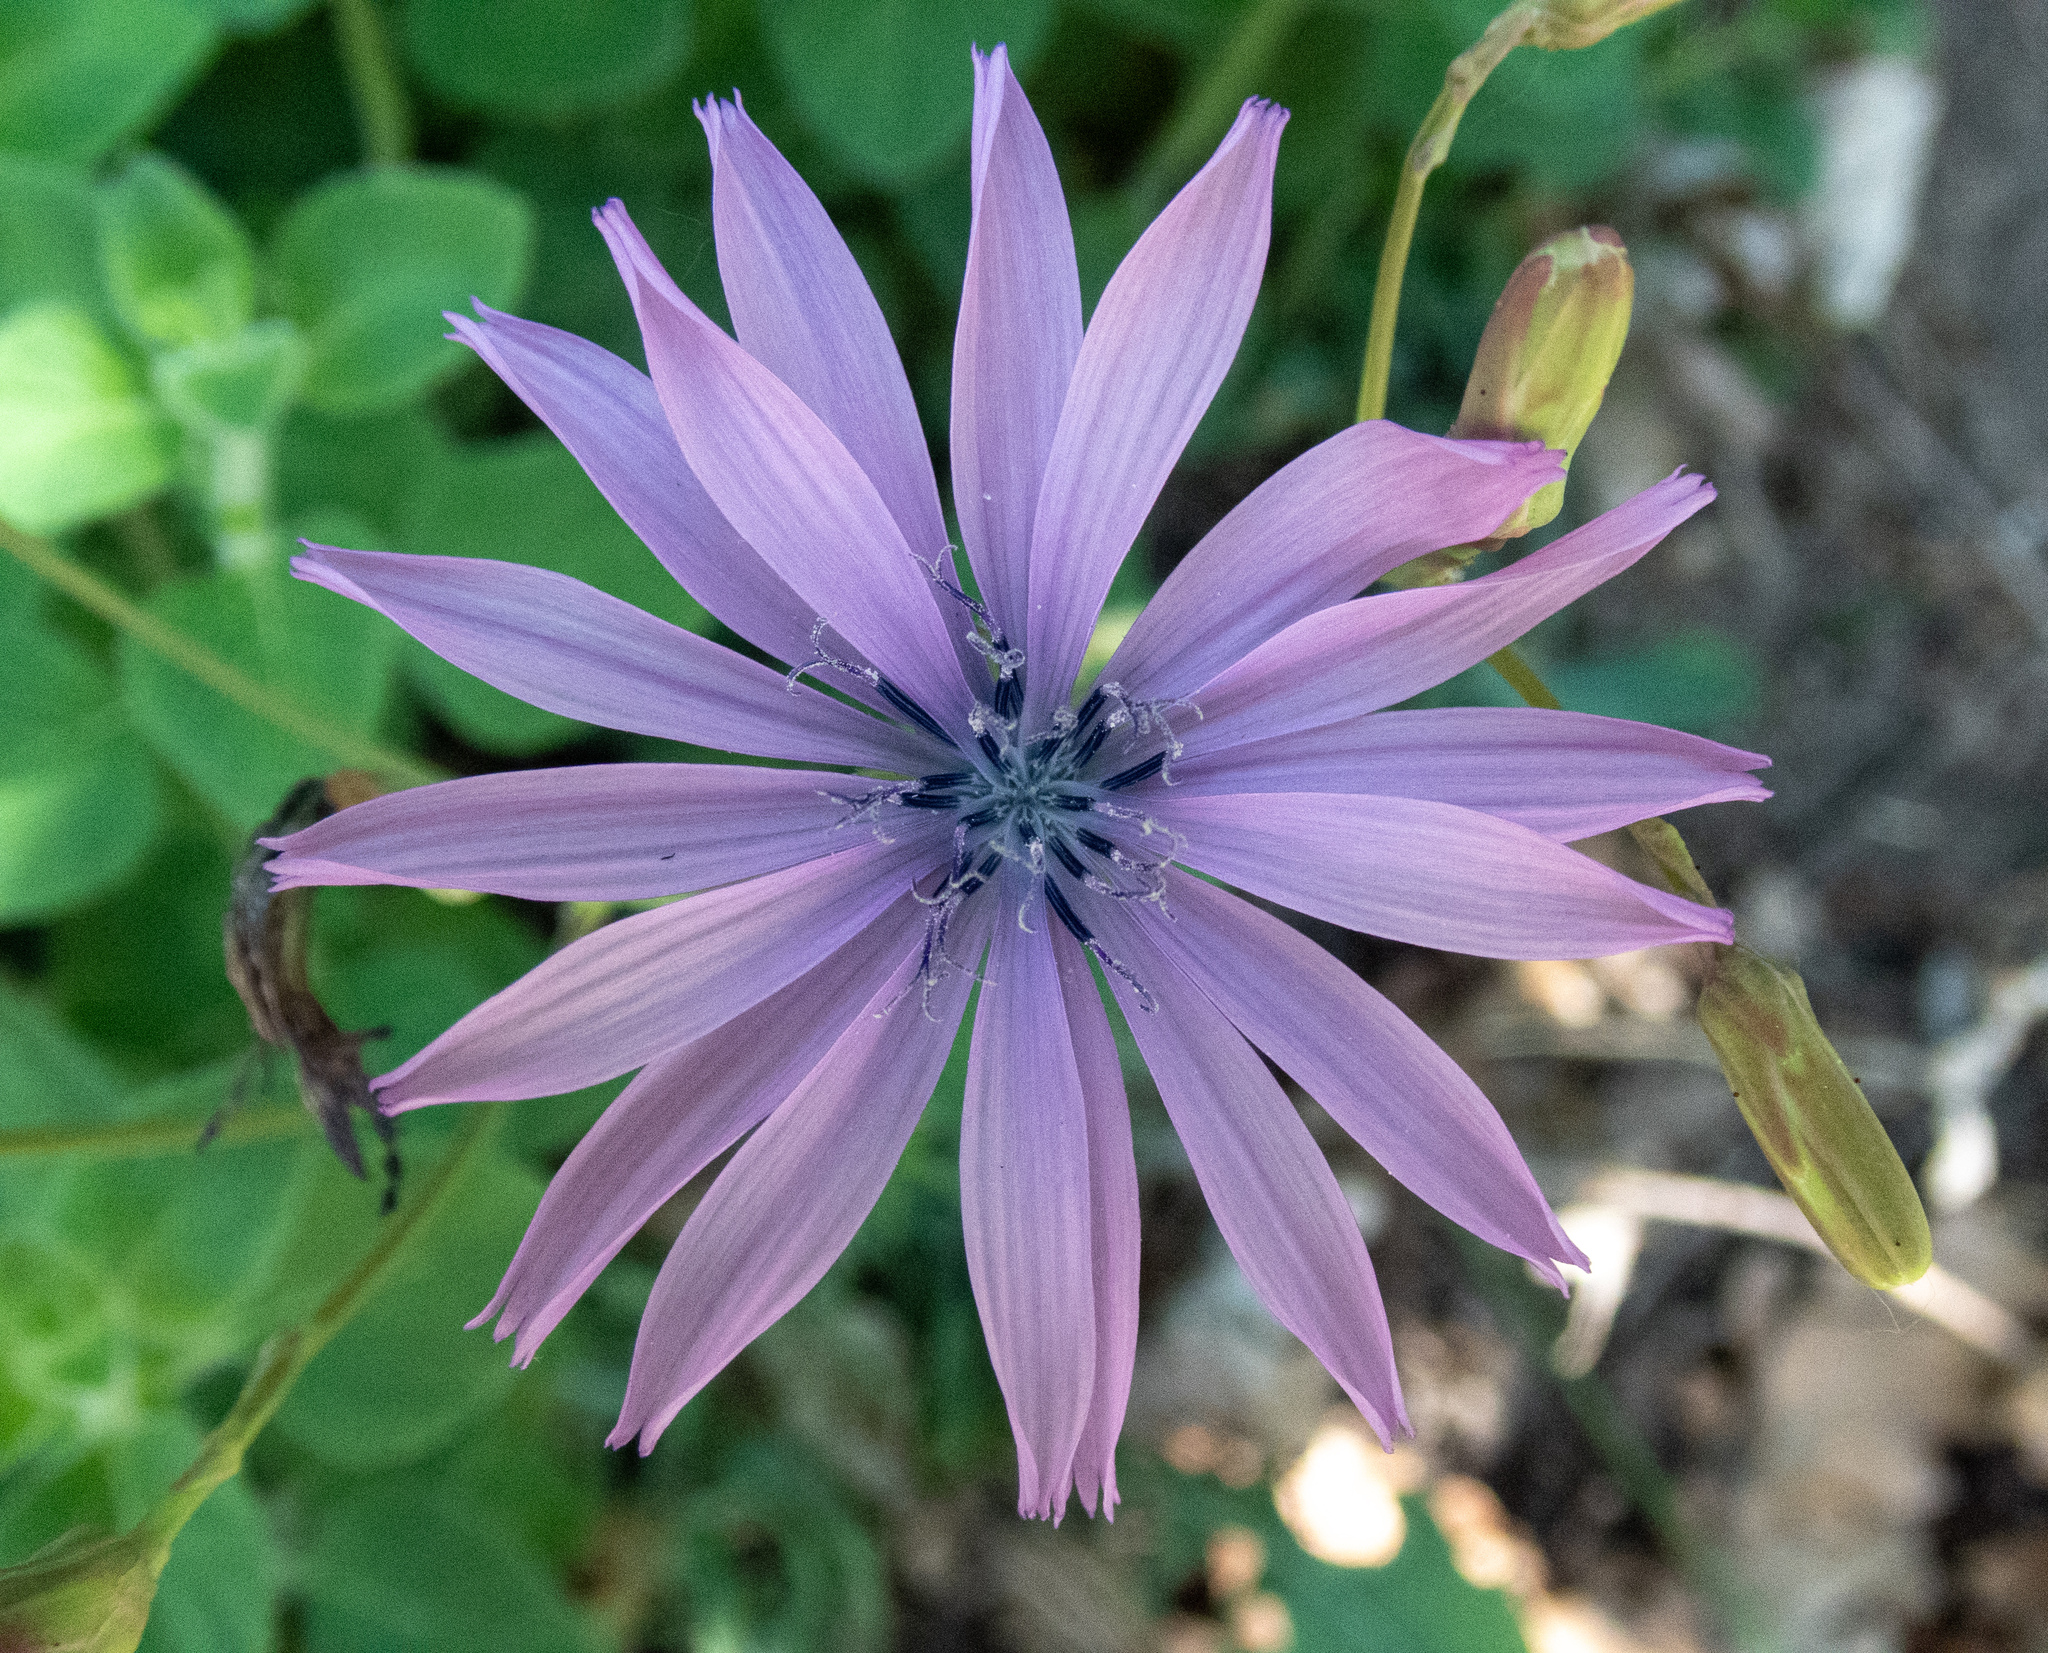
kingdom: Plantae
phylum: Tracheophyta
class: Magnoliopsida
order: Asterales
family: Asteraceae
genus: Lactuca
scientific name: Lactuca perennis
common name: Mountain lettuce
